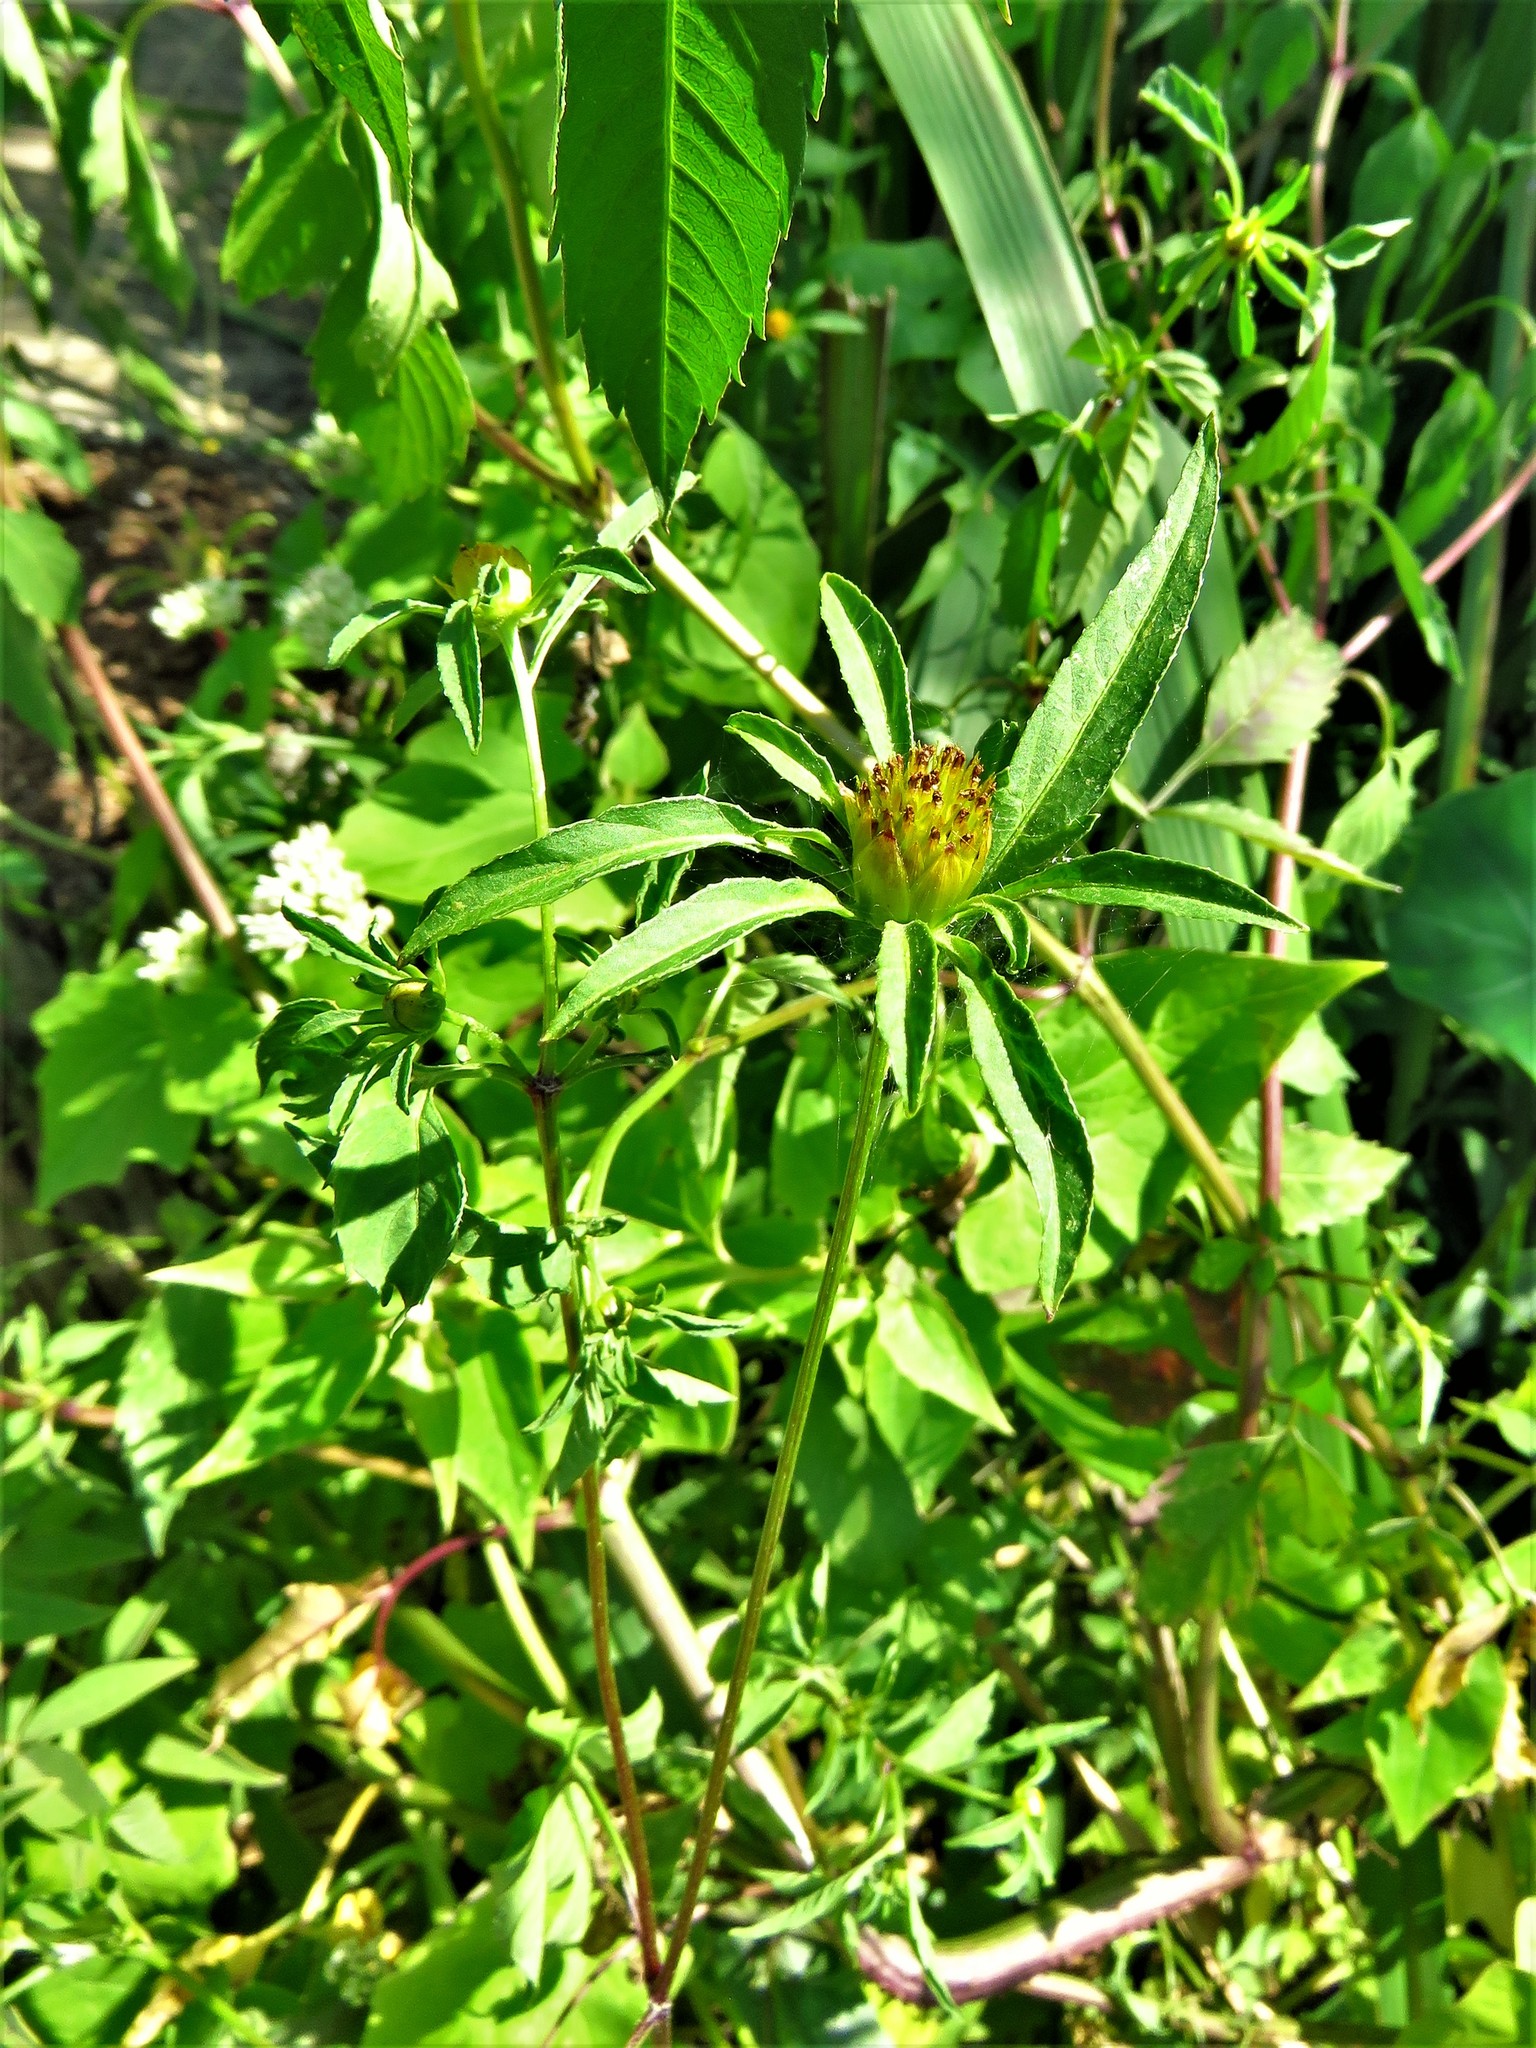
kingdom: Plantae
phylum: Tracheophyta
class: Magnoliopsida
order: Asterales
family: Asteraceae
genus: Bidens
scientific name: Bidens frondosa
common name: Beggarticks
